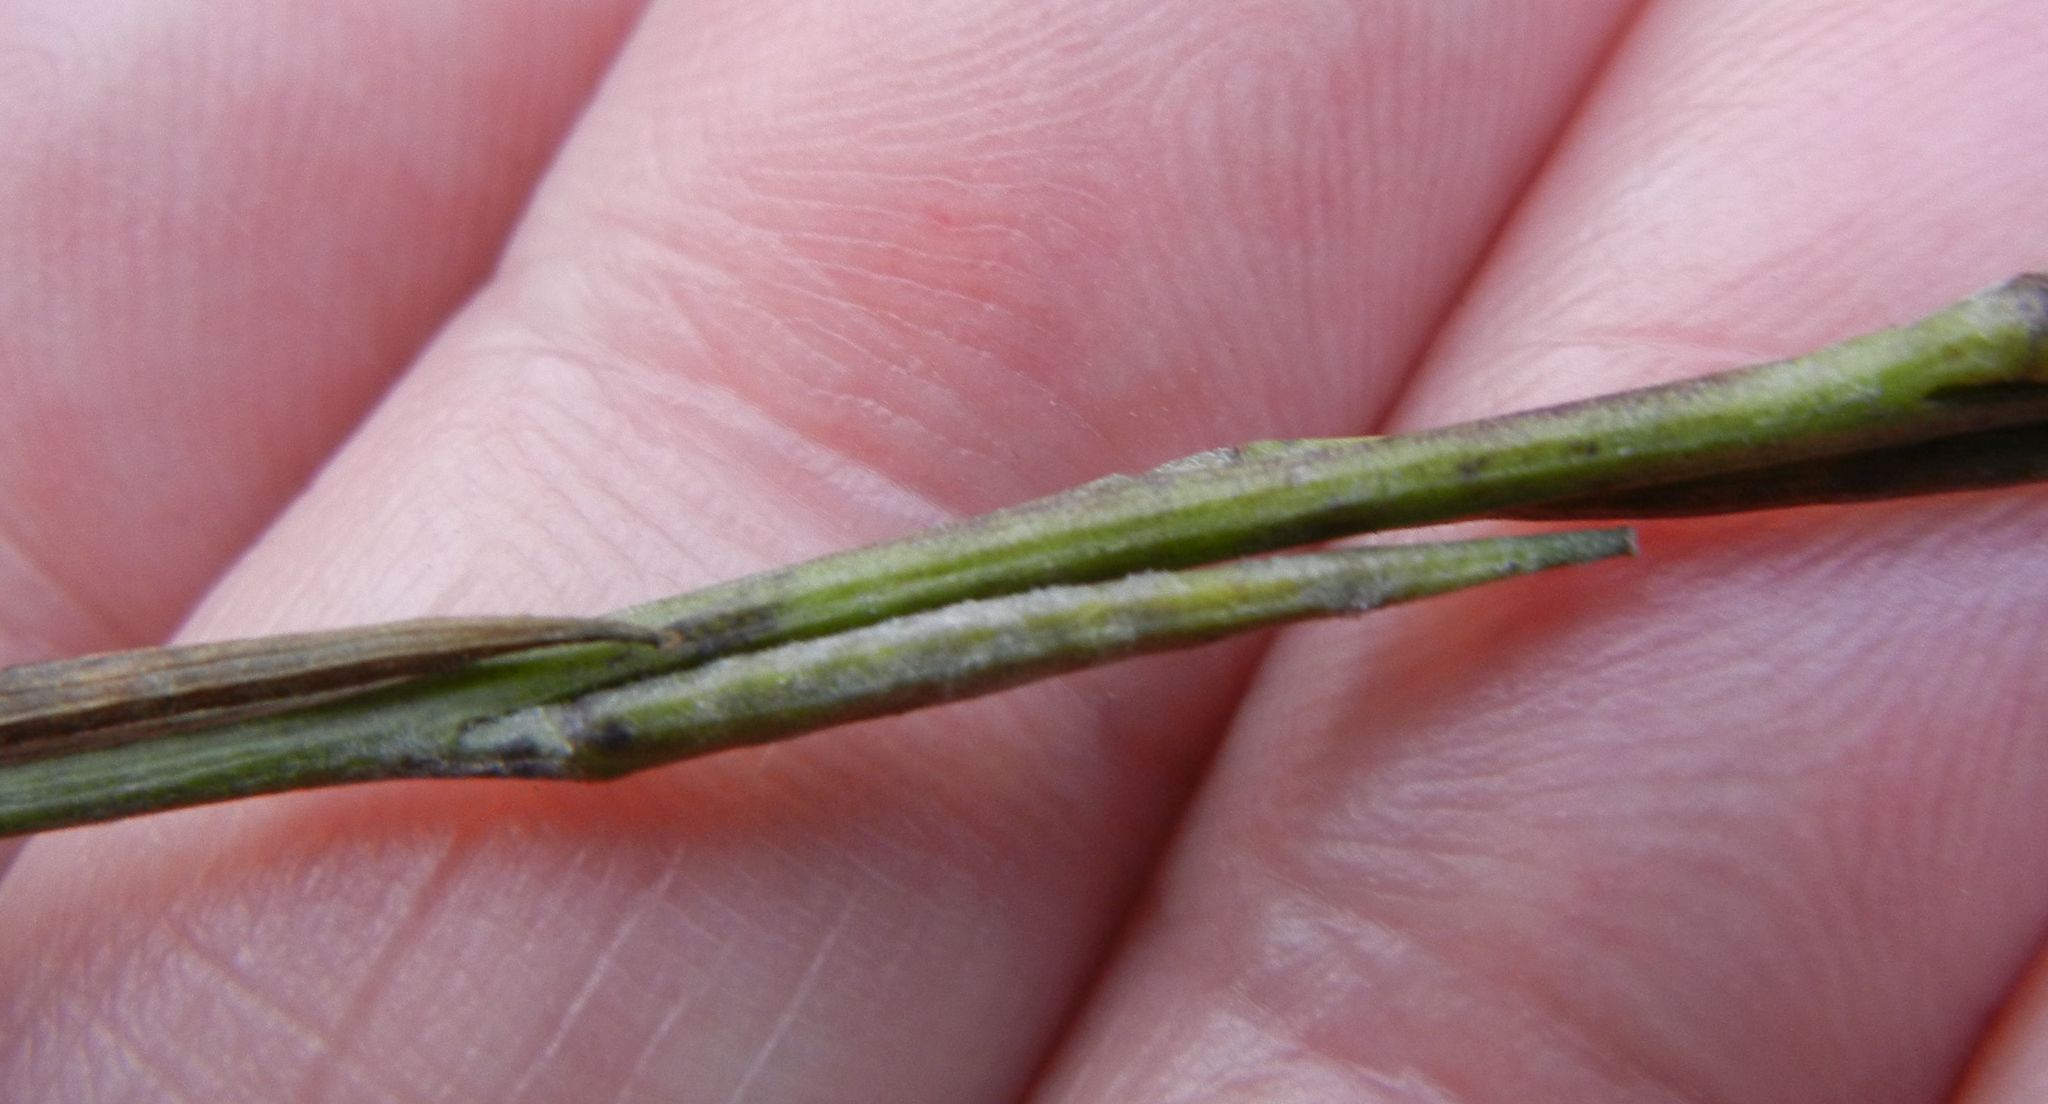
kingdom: Plantae
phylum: Tracheophyta
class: Magnoliopsida
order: Brassicales
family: Brassicaceae
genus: Sisymbrium
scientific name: Sisymbrium officinale
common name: Hedge mustard
